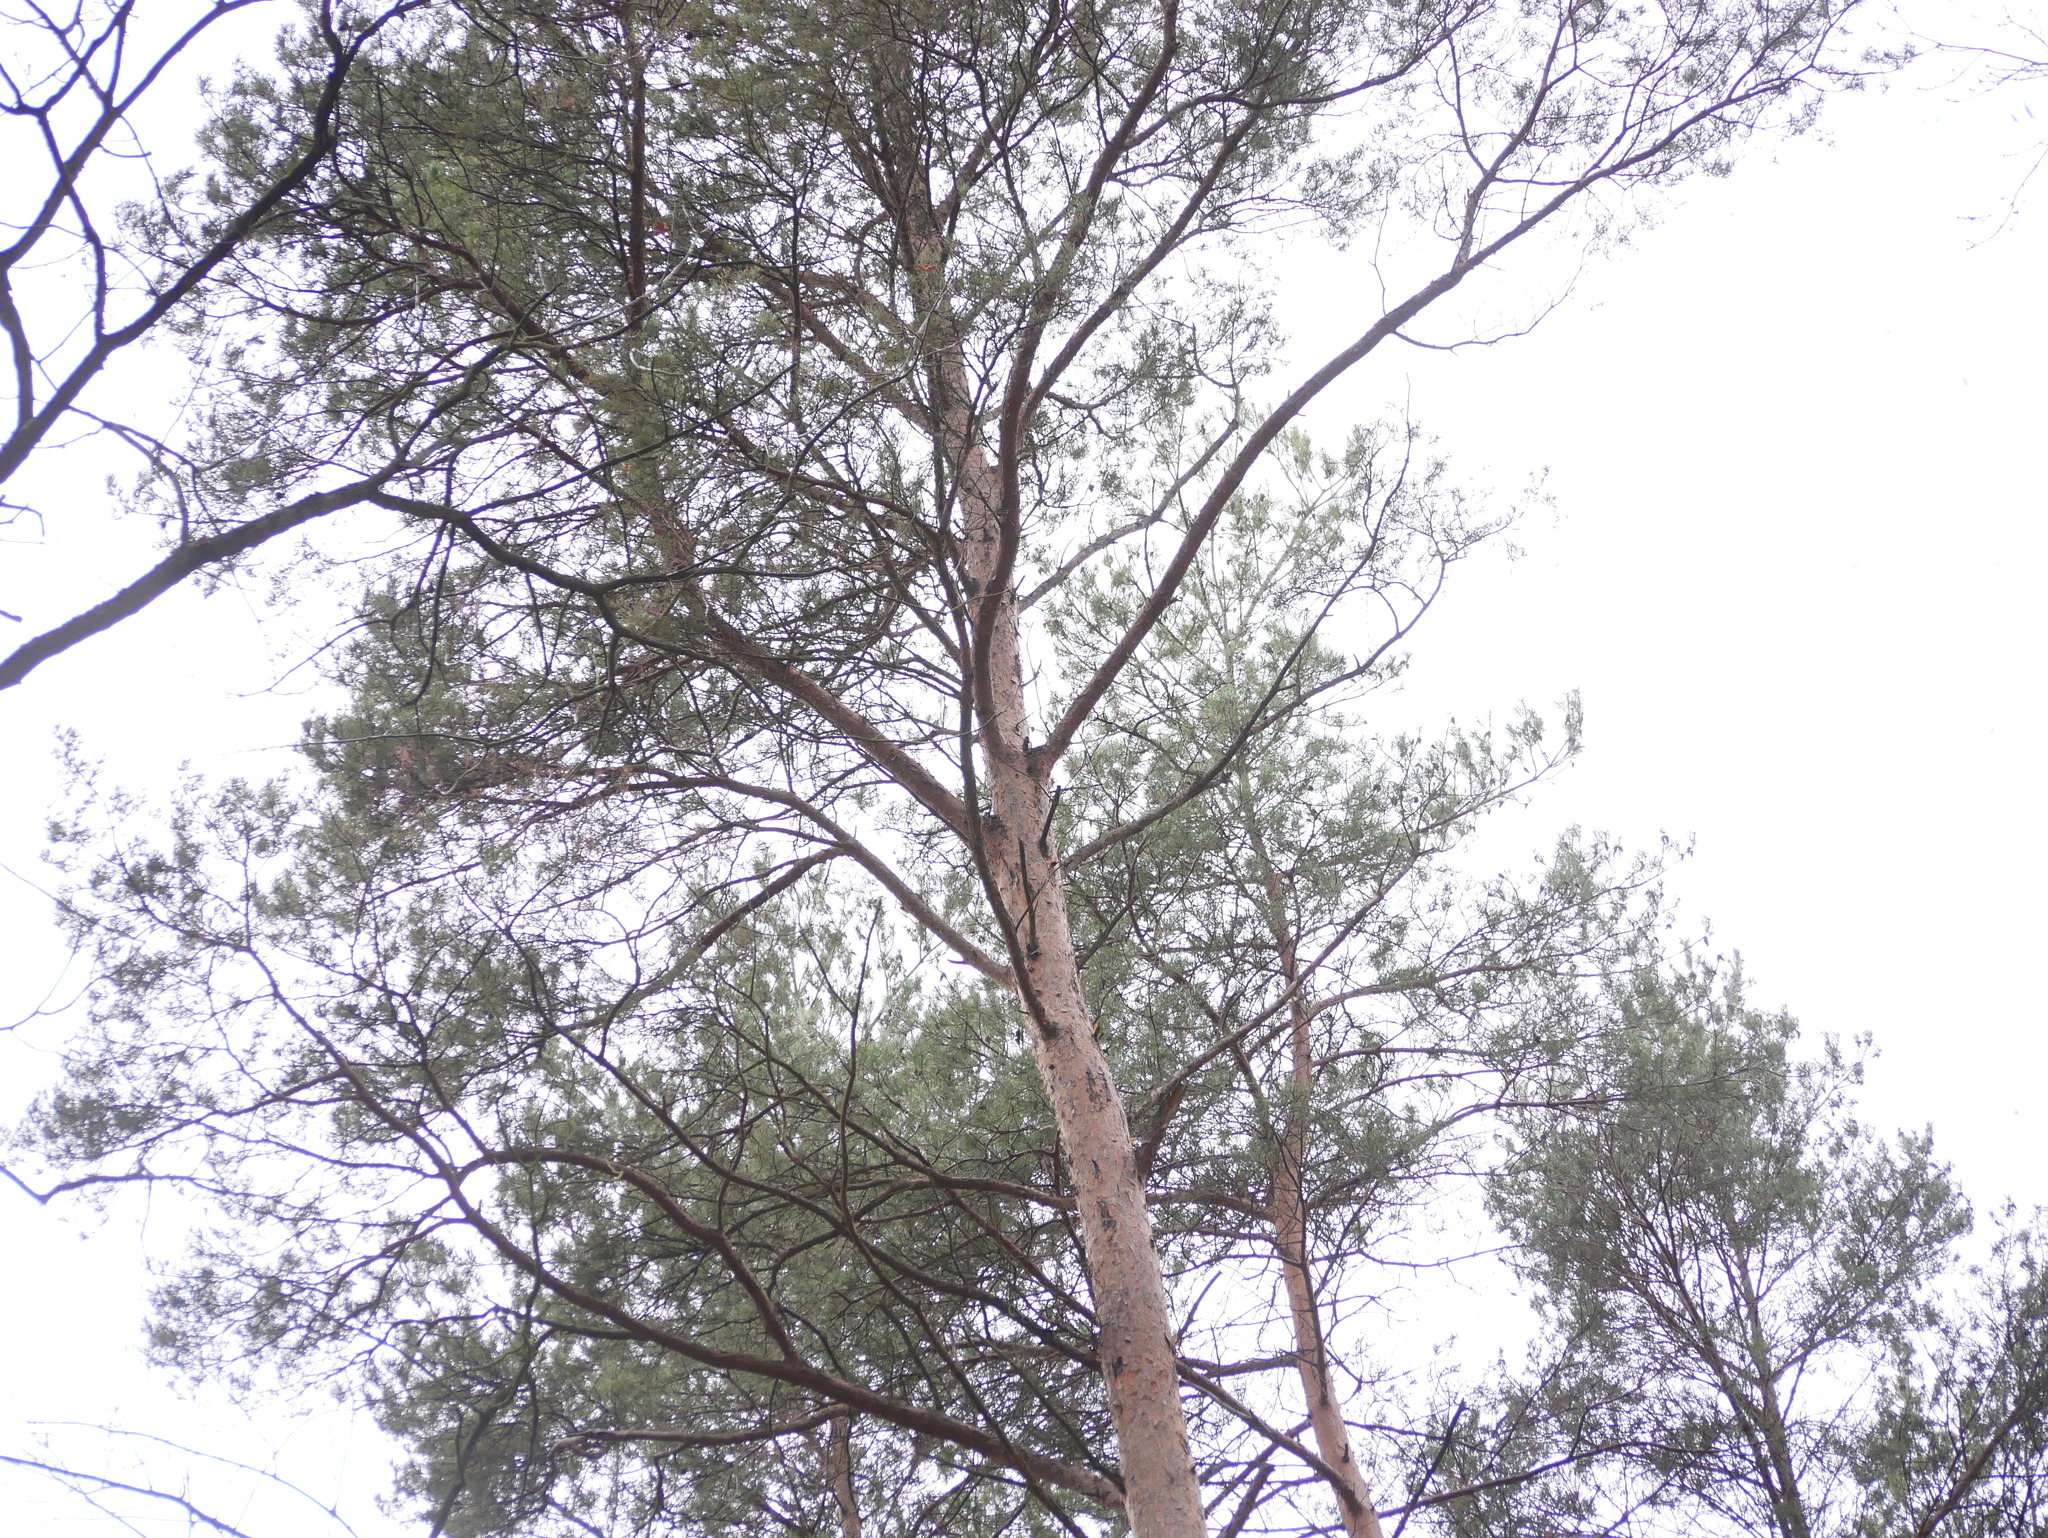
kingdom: Plantae
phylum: Tracheophyta
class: Pinopsida
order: Pinales
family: Pinaceae
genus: Pinus
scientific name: Pinus sylvestris
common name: Scots pine
